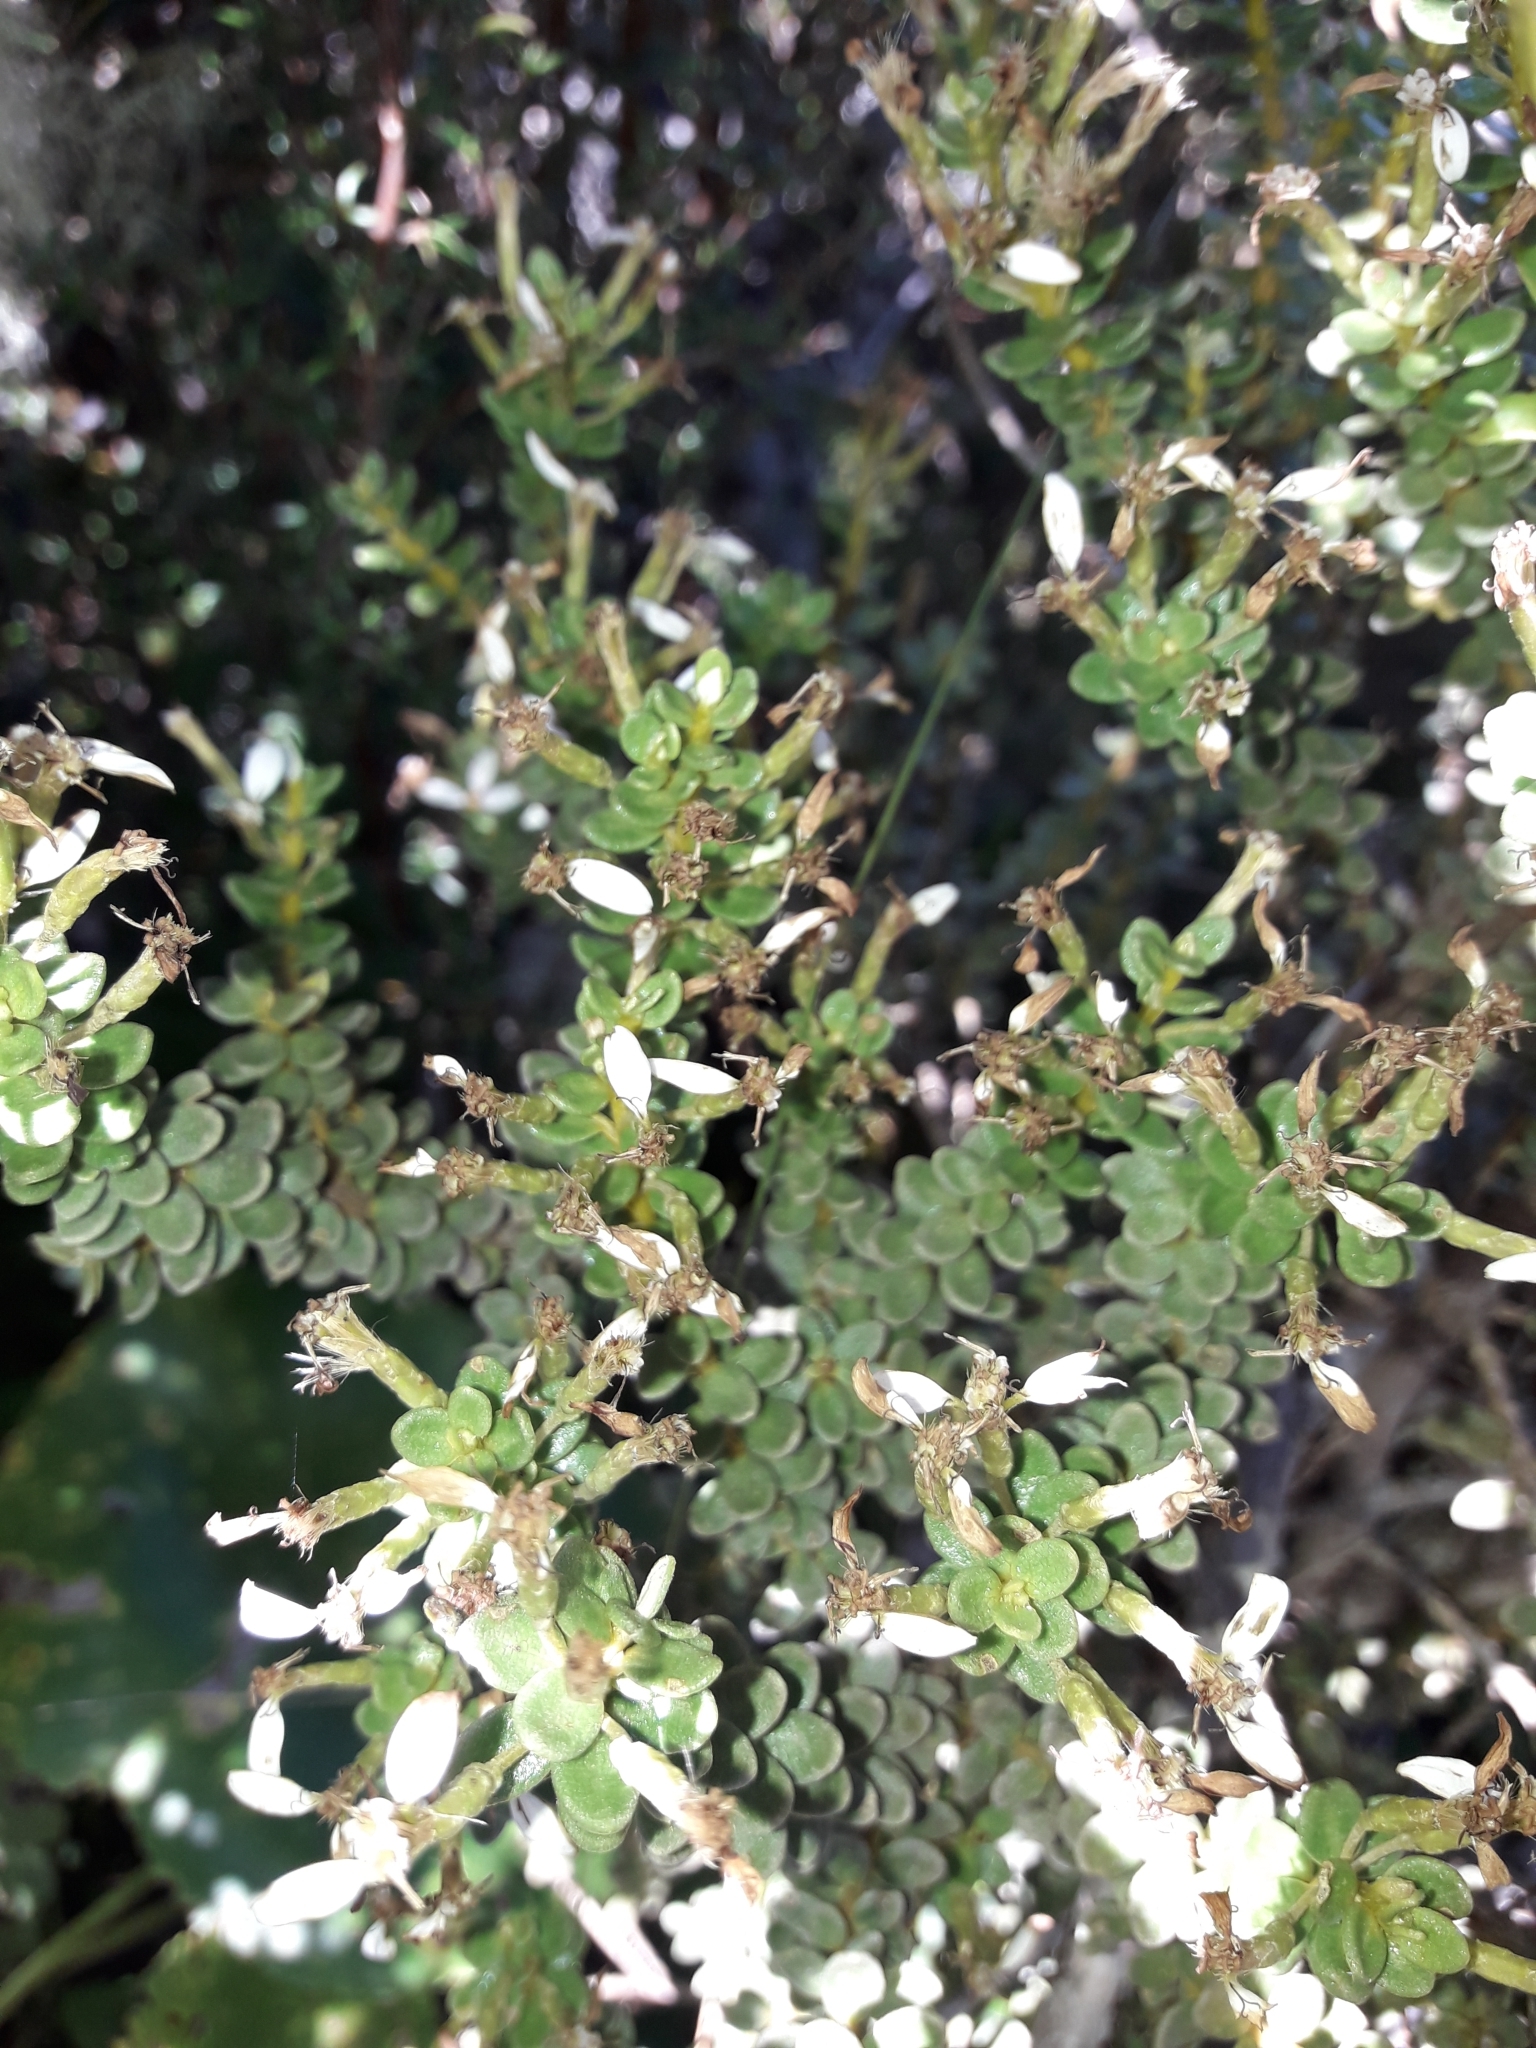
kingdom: Plantae
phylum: Tracheophyta
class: Magnoliopsida
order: Asterales
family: Asteraceae
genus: Olearia
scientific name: Olearia nummularifolia
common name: Sticky daisybush
